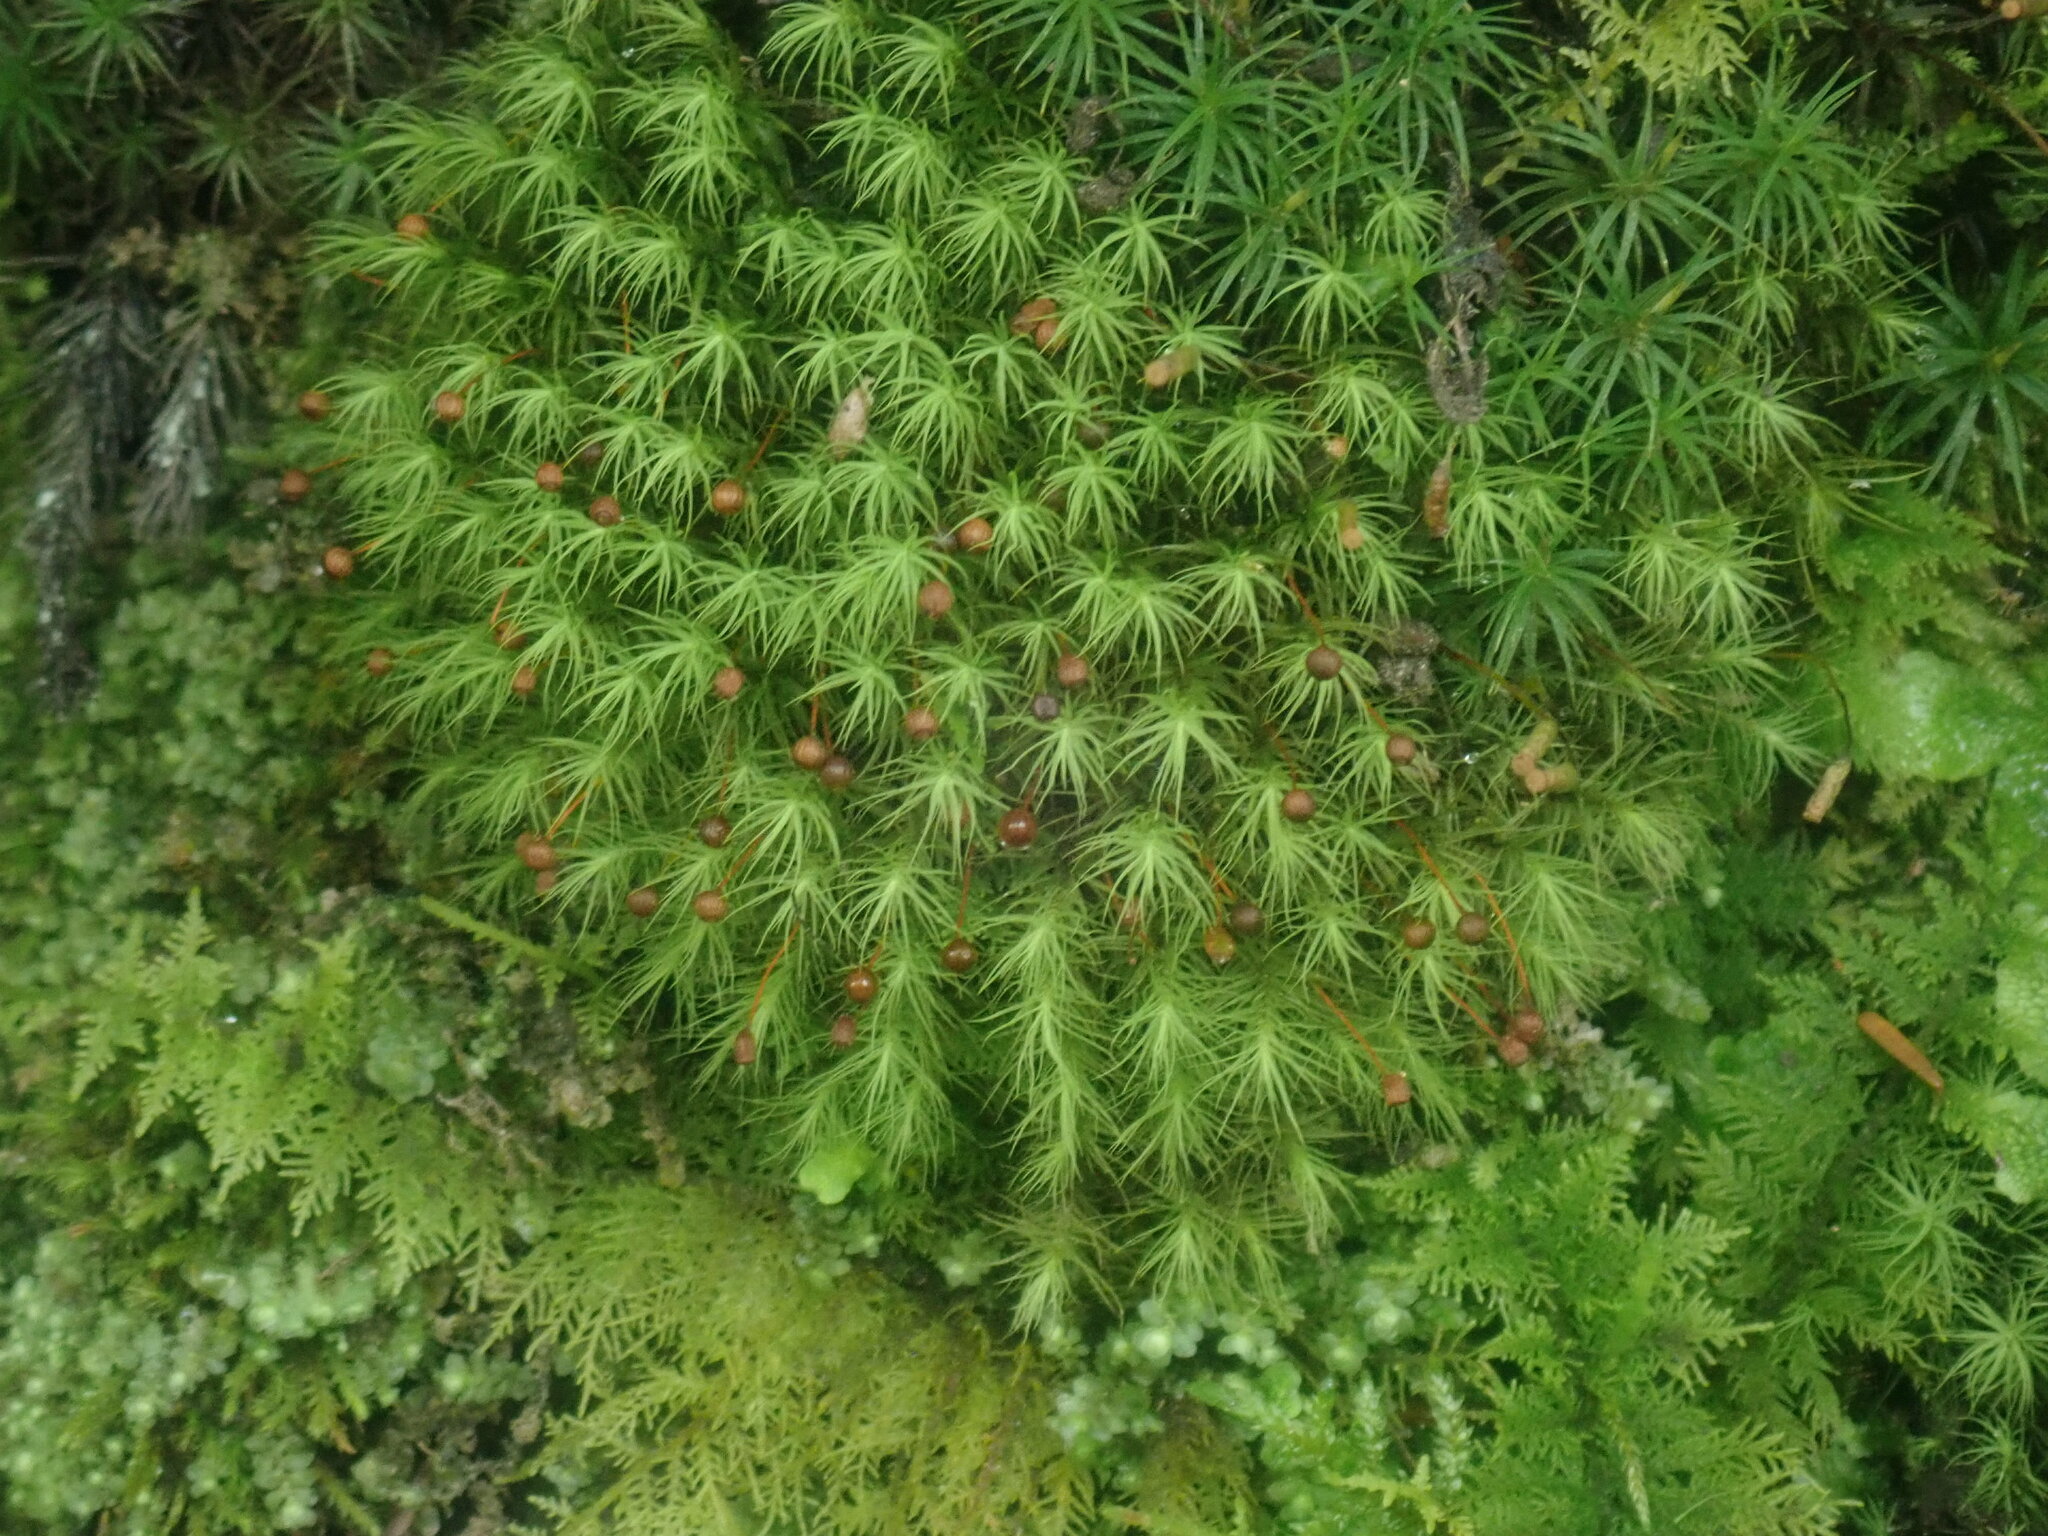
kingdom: Plantae
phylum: Bryophyta
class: Bryopsida
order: Bartramiales
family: Bartramiaceae
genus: Bartramia
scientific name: Bartramia ithyphylla
